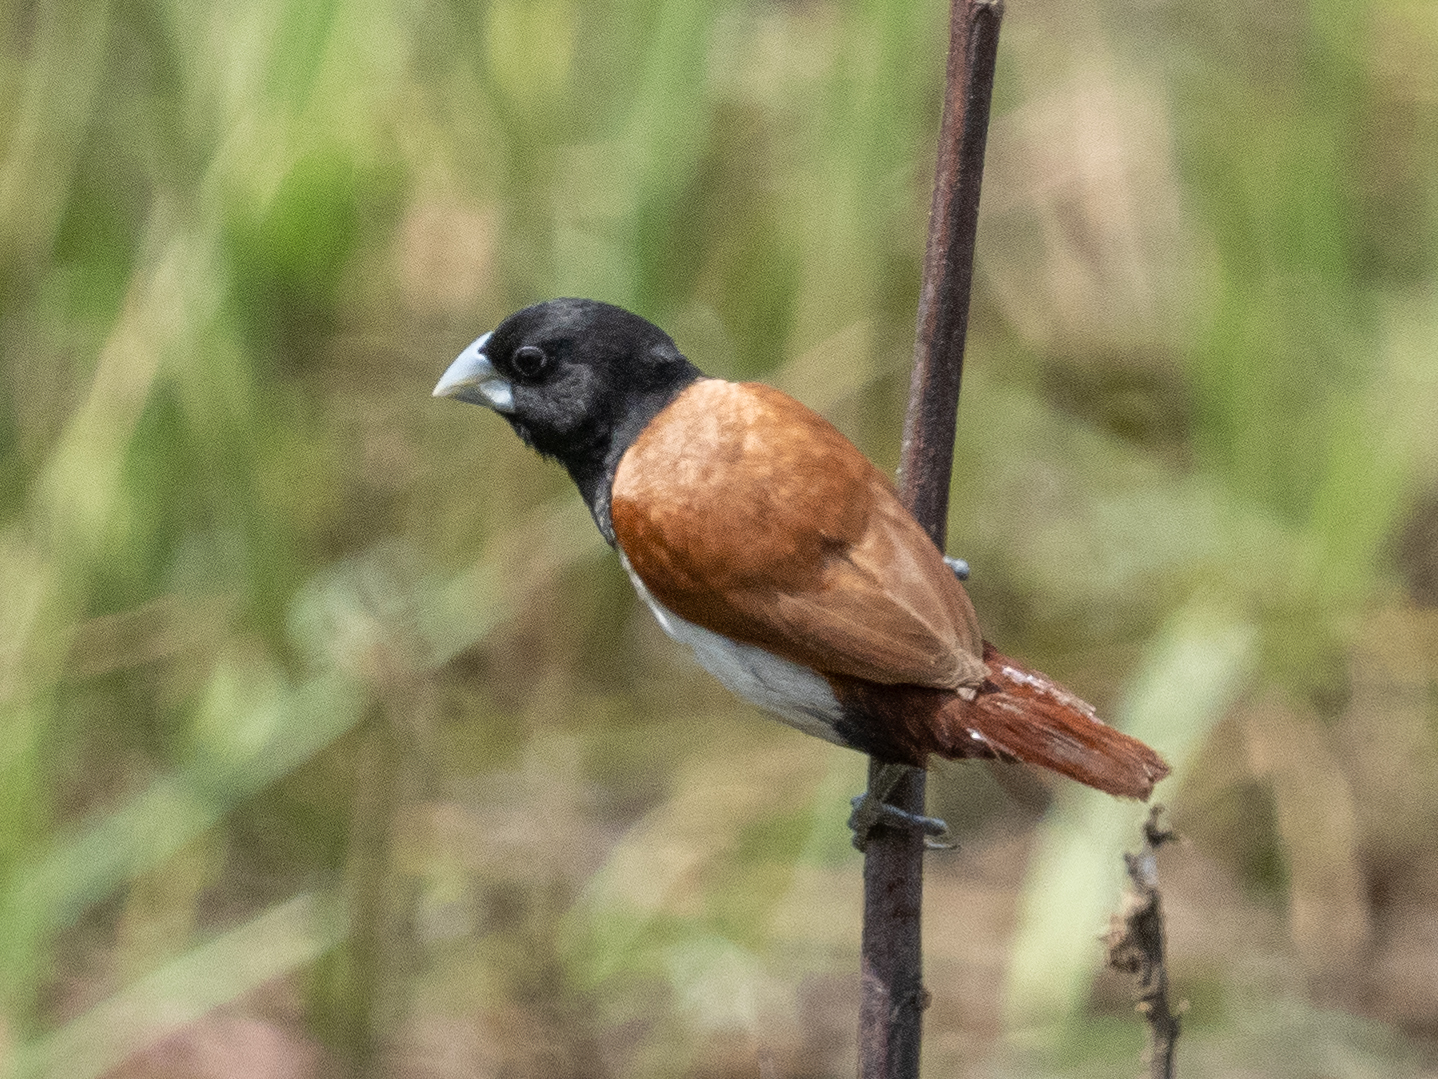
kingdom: Animalia
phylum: Chordata
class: Aves
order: Passeriformes
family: Estrildidae
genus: Lonchura
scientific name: Lonchura malacca
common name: Tricolored munia
